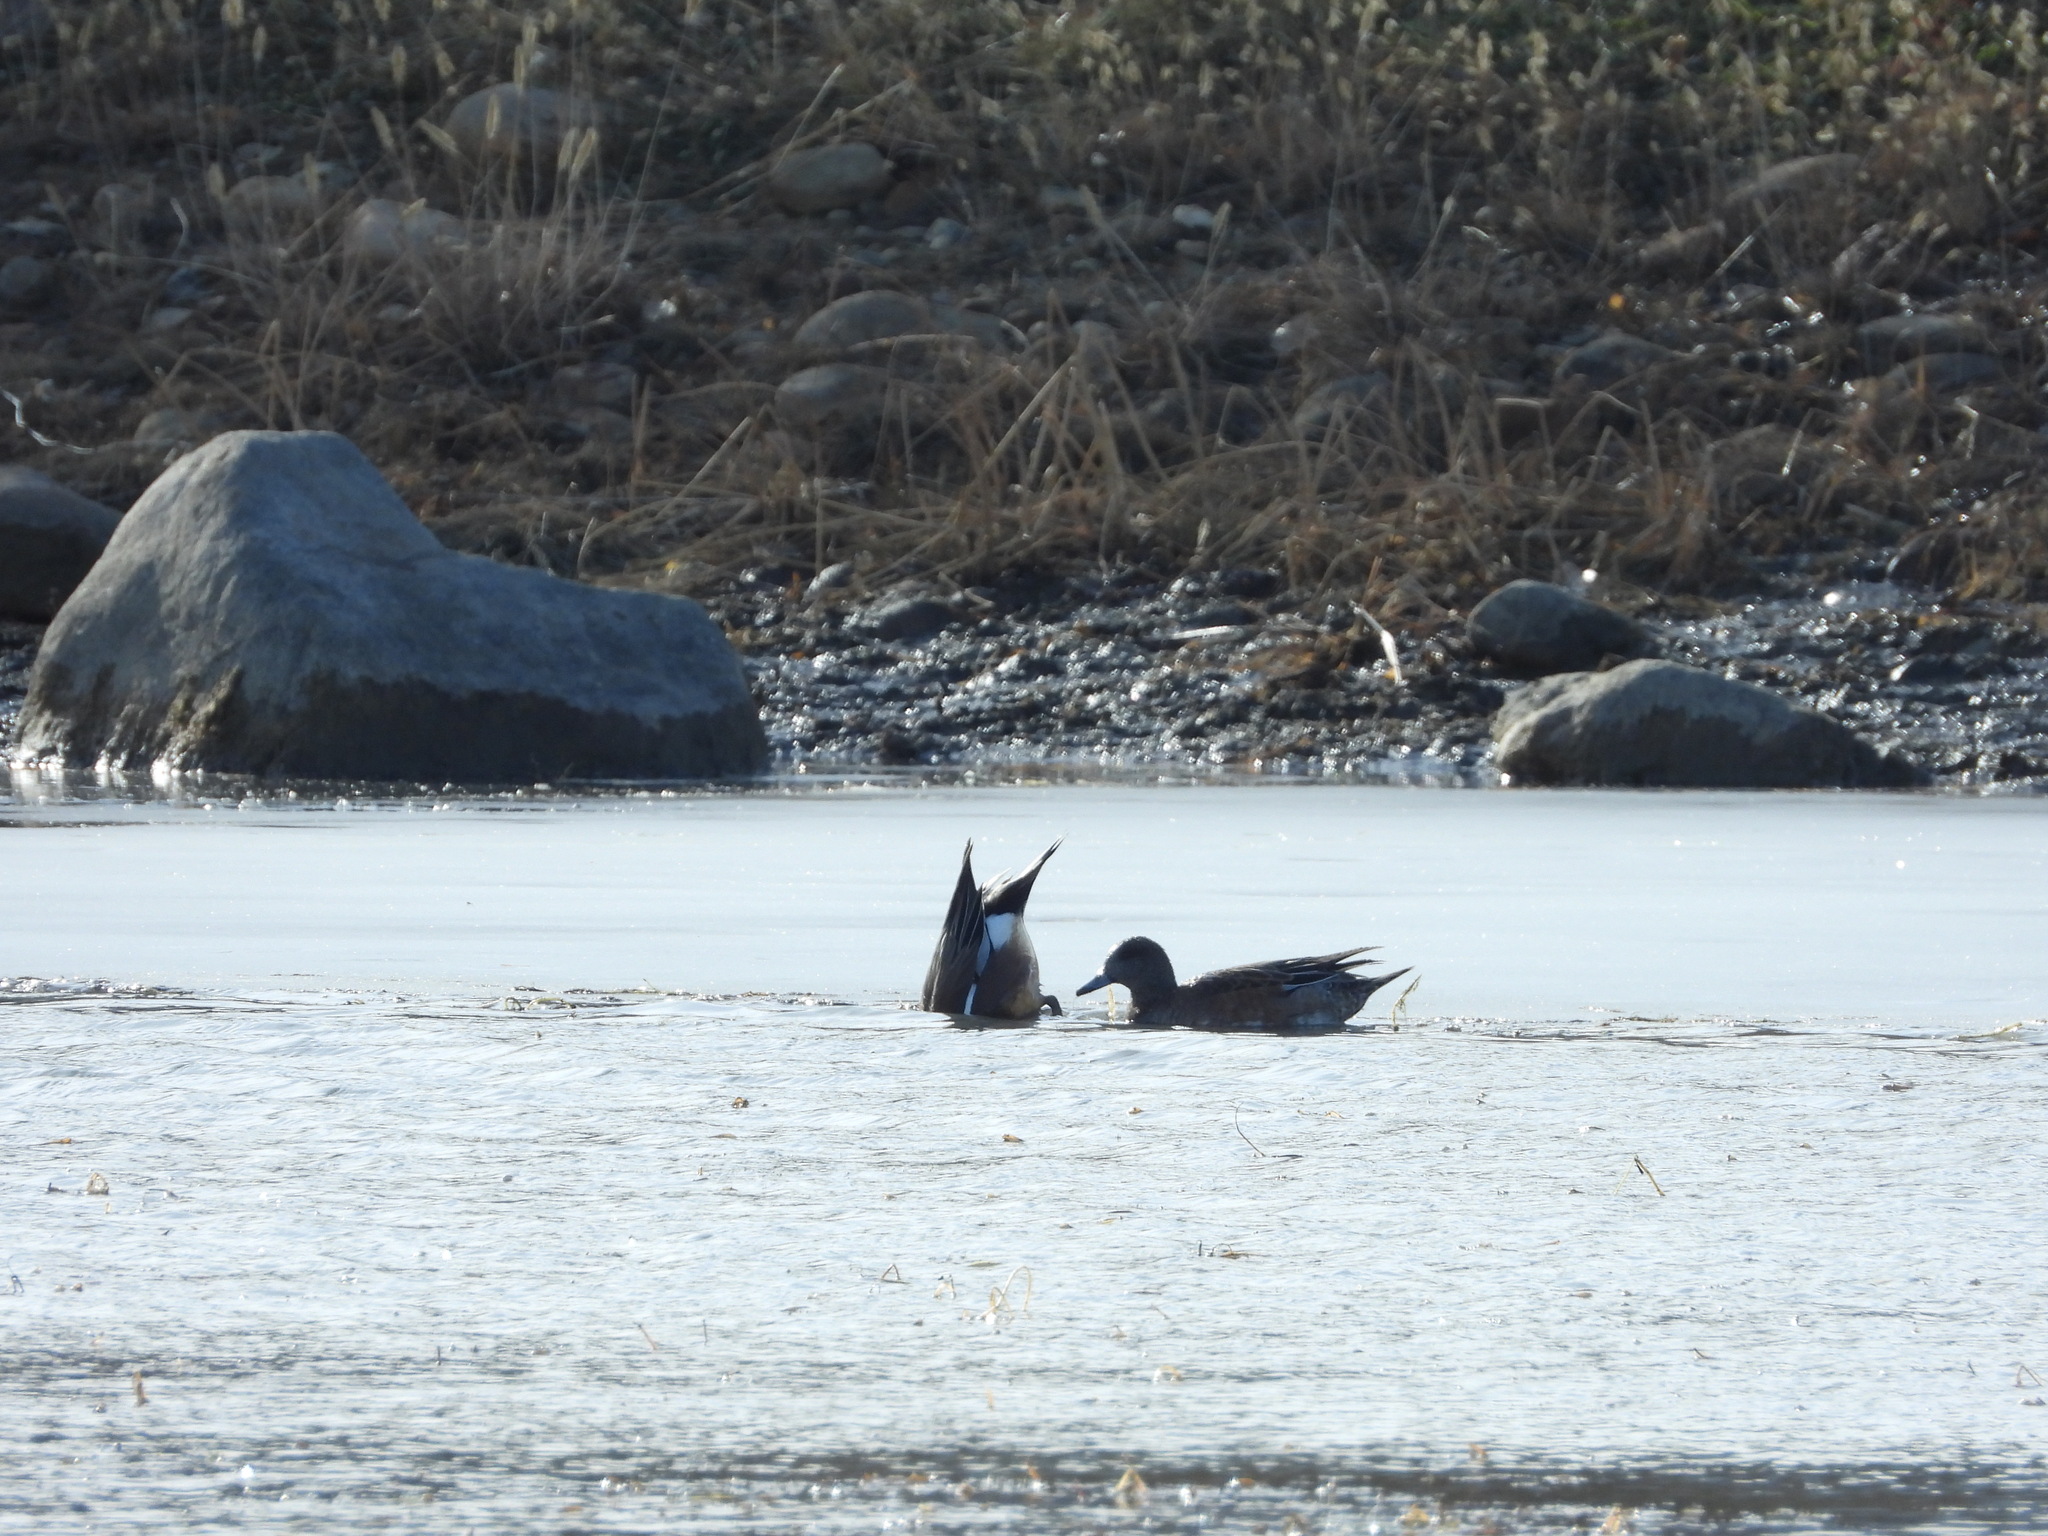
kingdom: Animalia
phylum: Chordata
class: Aves
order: Anseriformes
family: Anatidae
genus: Mareca
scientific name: Mareca americana
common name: American wigeon
